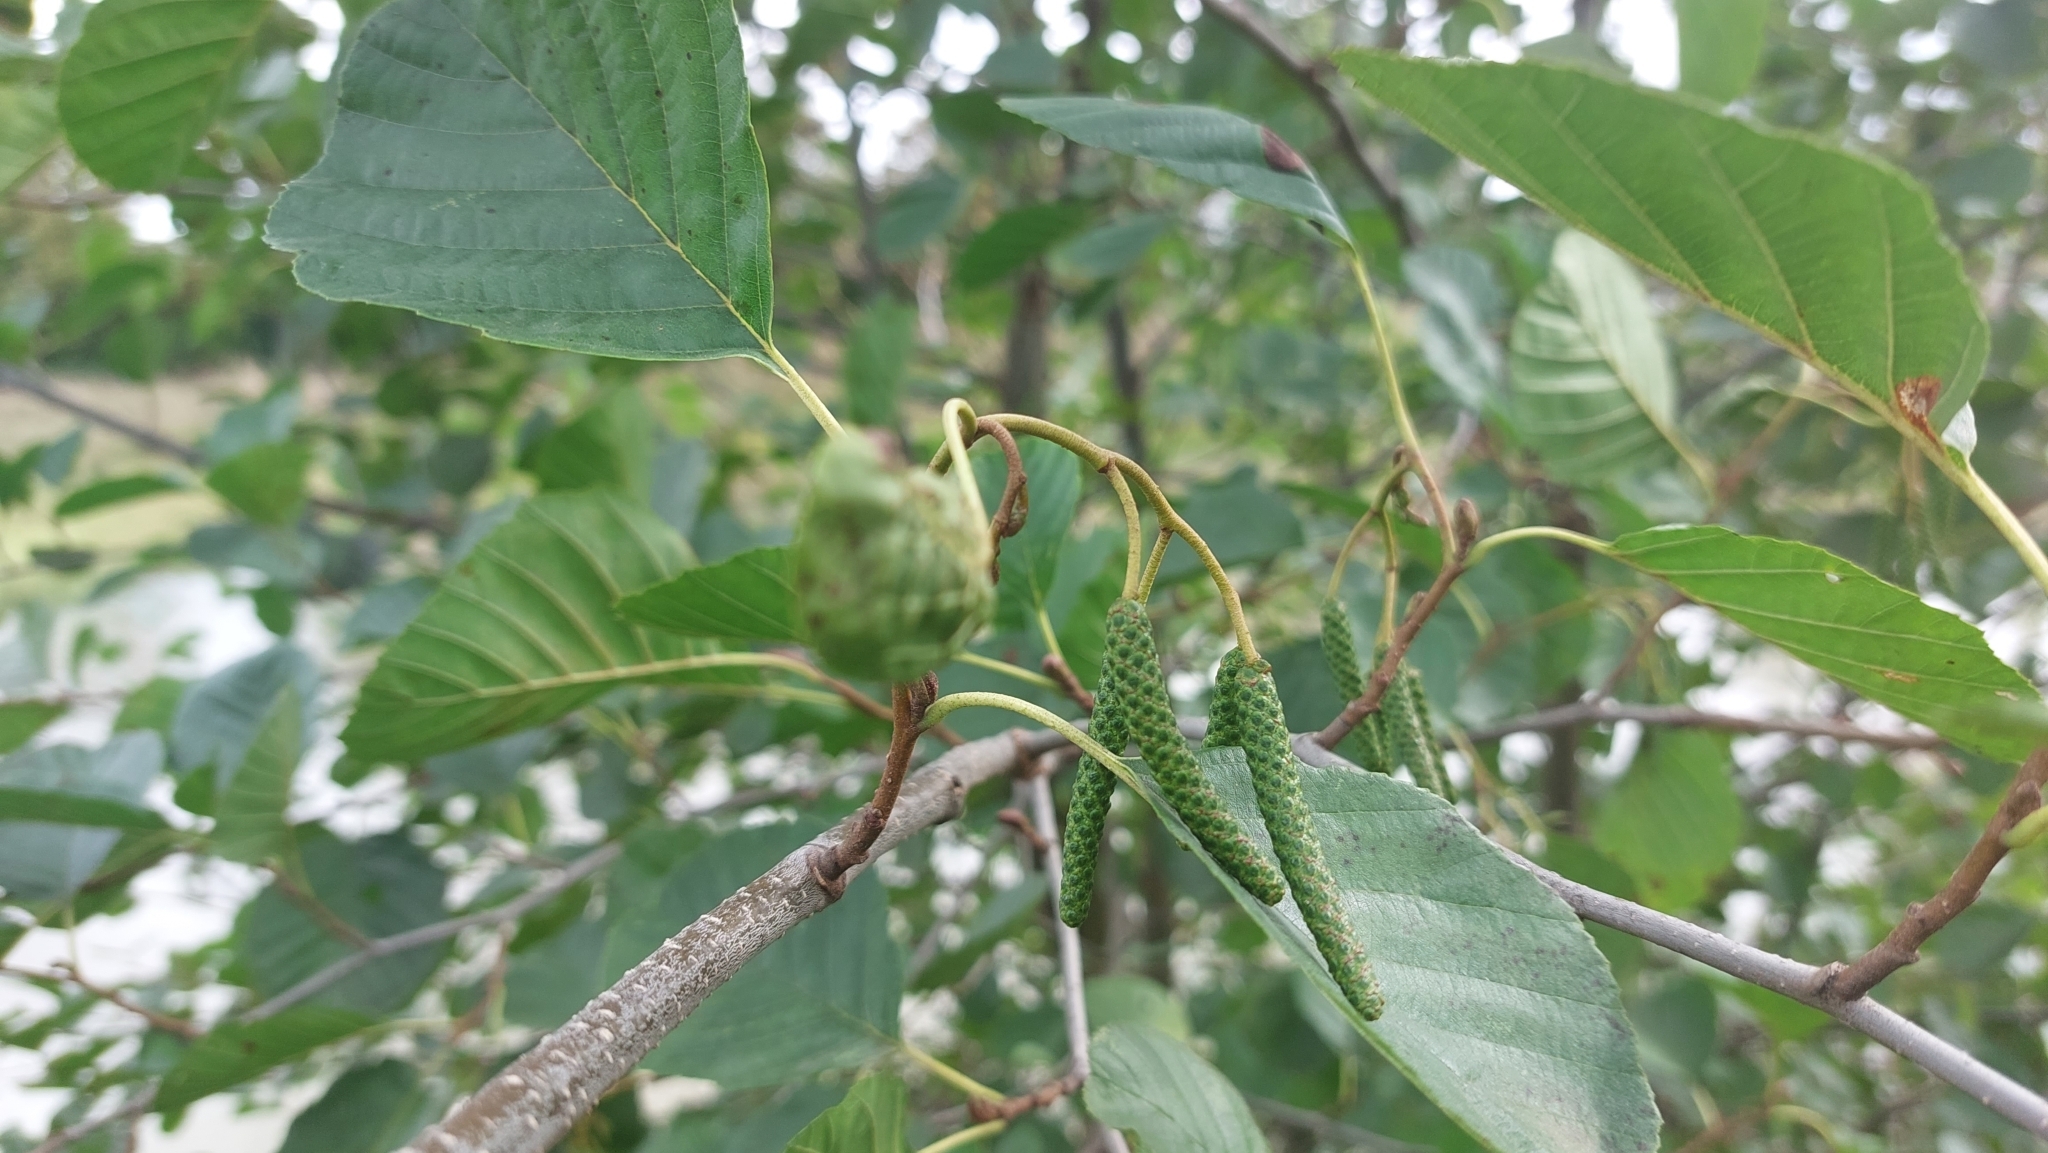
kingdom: Plantae
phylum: Tracheophyta
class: Magnoliopsida
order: Fagales
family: Betulaceae
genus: Alnus
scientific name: Alnus glutinosa
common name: Black alder
